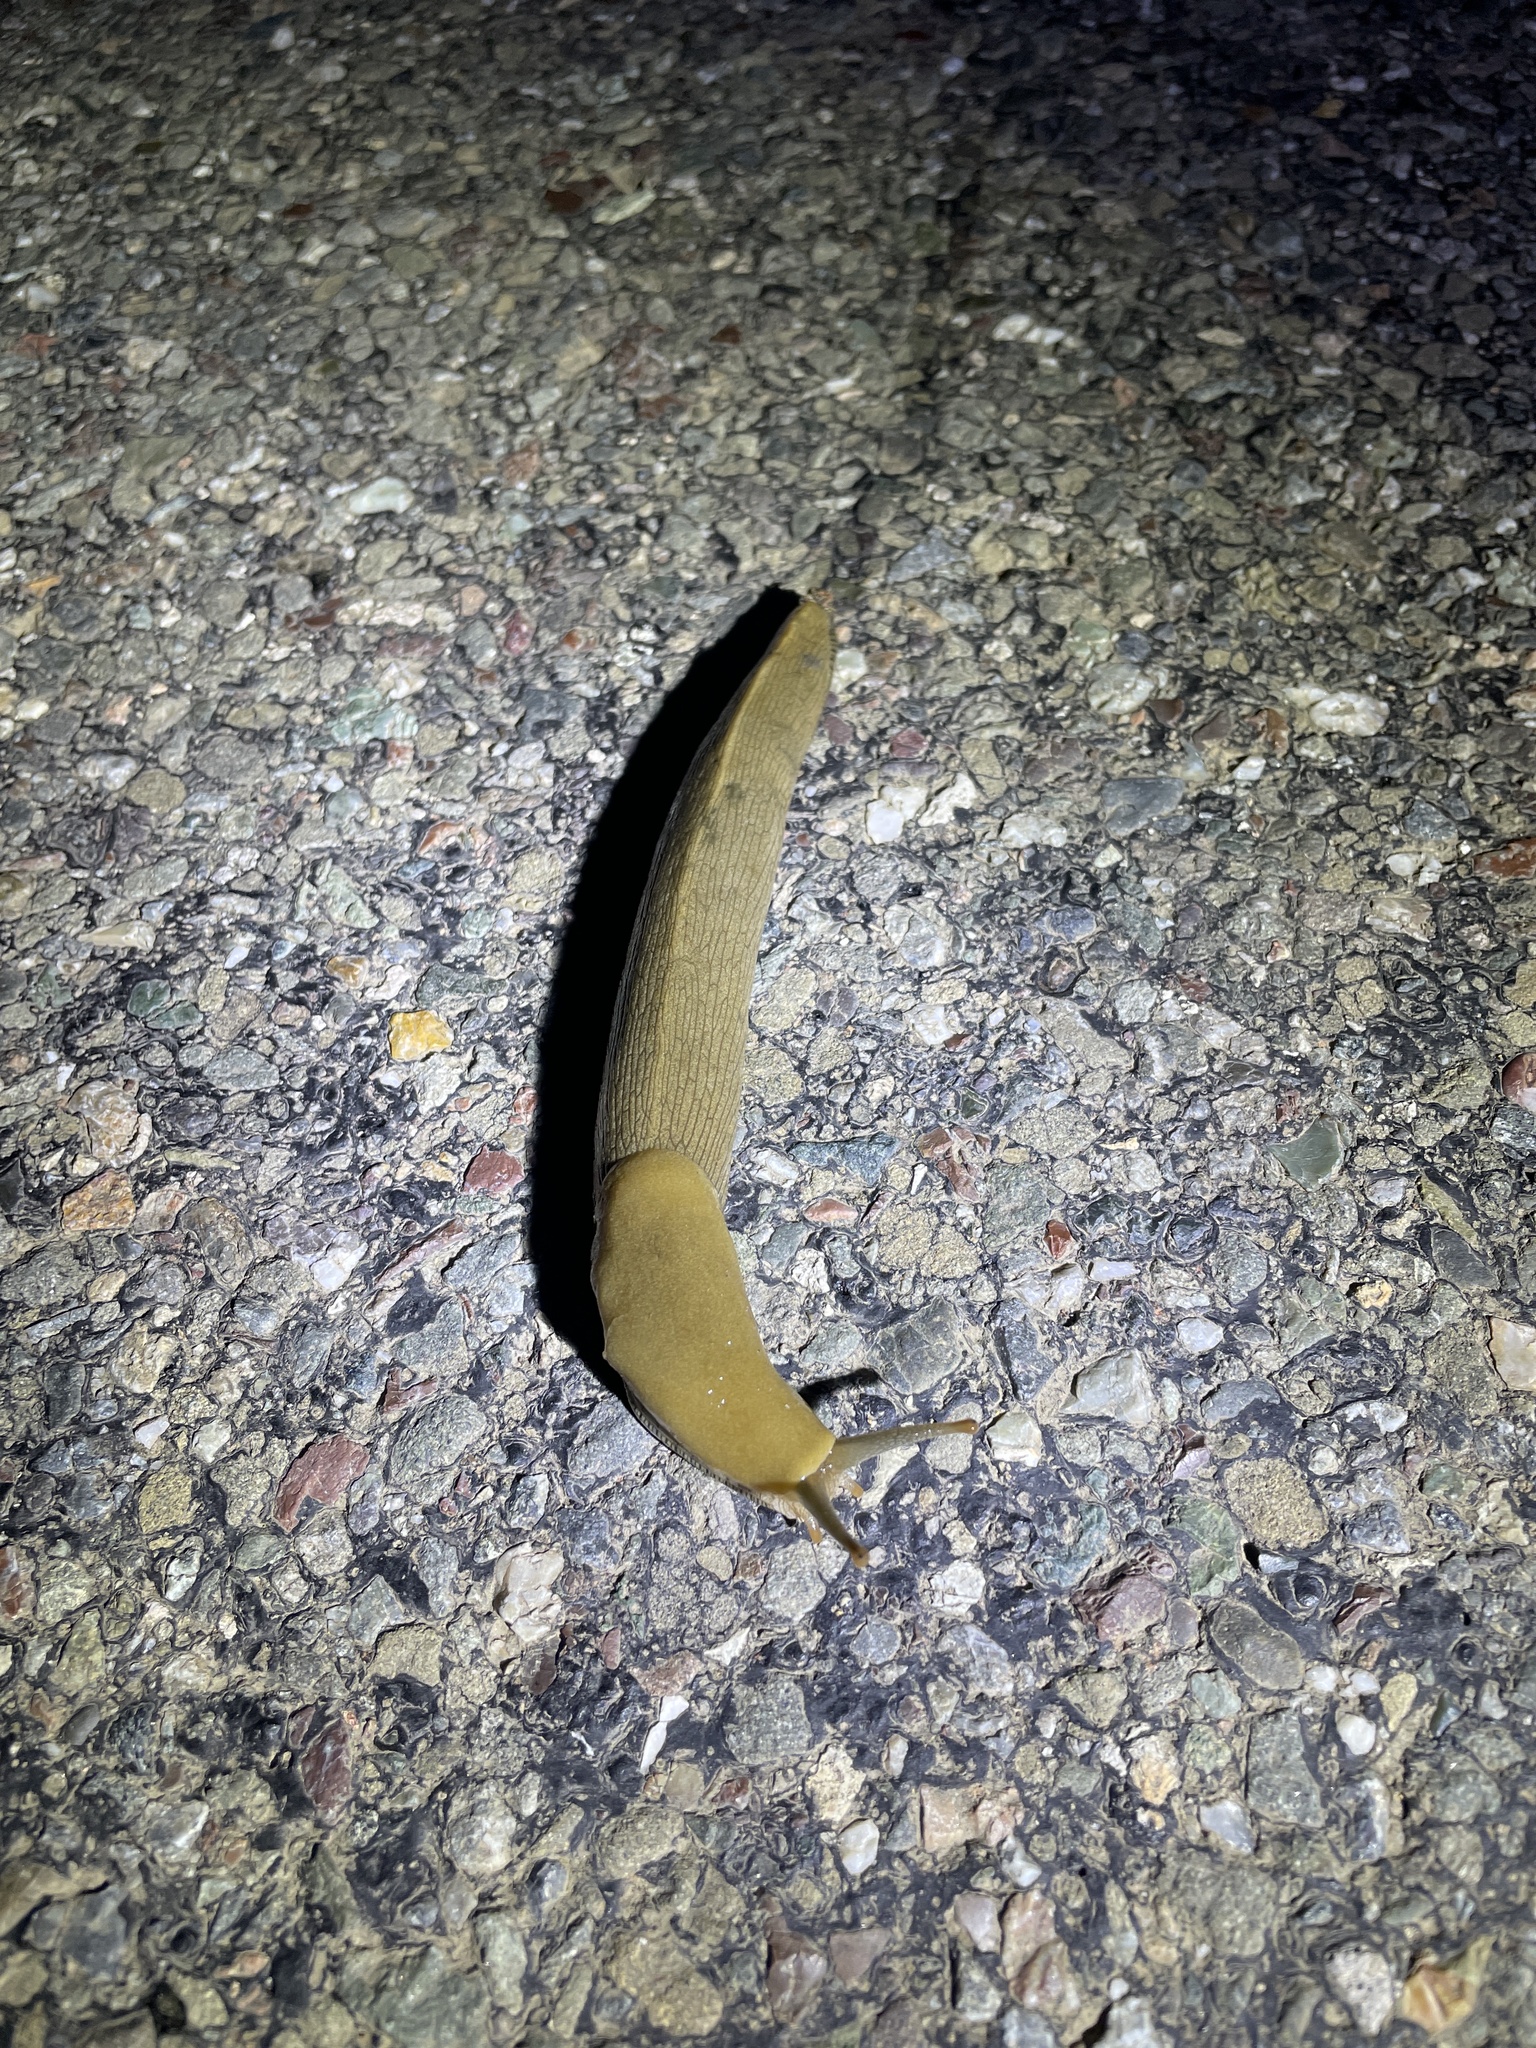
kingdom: Animalia
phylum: Mollusca
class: Gastropoda
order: Stylommatophora
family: Ariolimacidae
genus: Ariolimax
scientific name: Ariolimax buttoni
